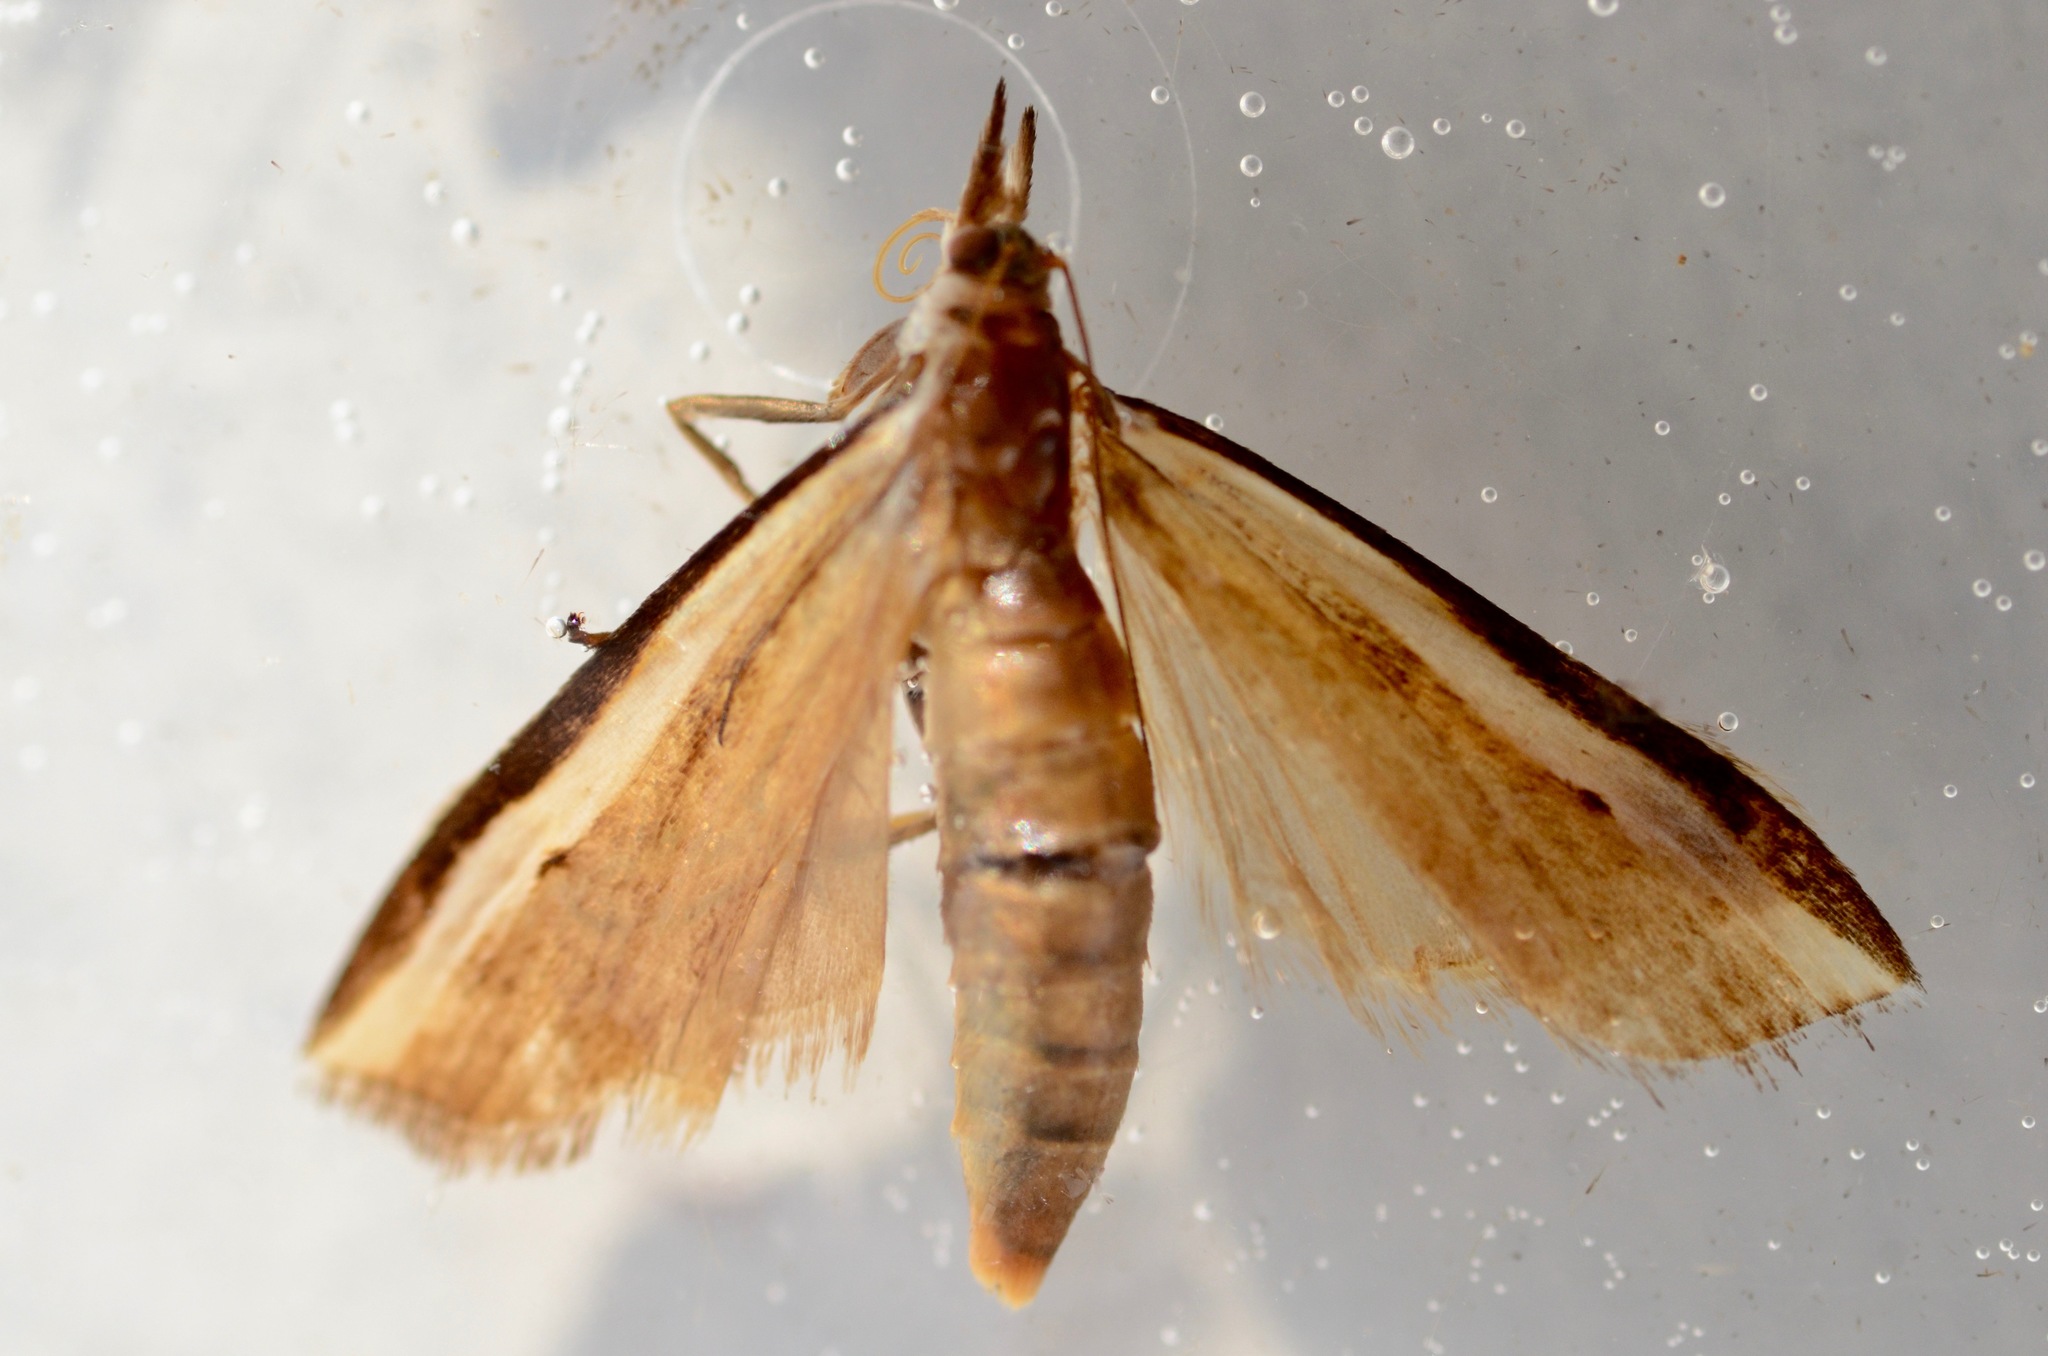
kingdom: Animalia
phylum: Arthropoda
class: Insecta
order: Lepidoptera
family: Crambidae
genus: Orocrambus
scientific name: Orocrambus flexuosellus
